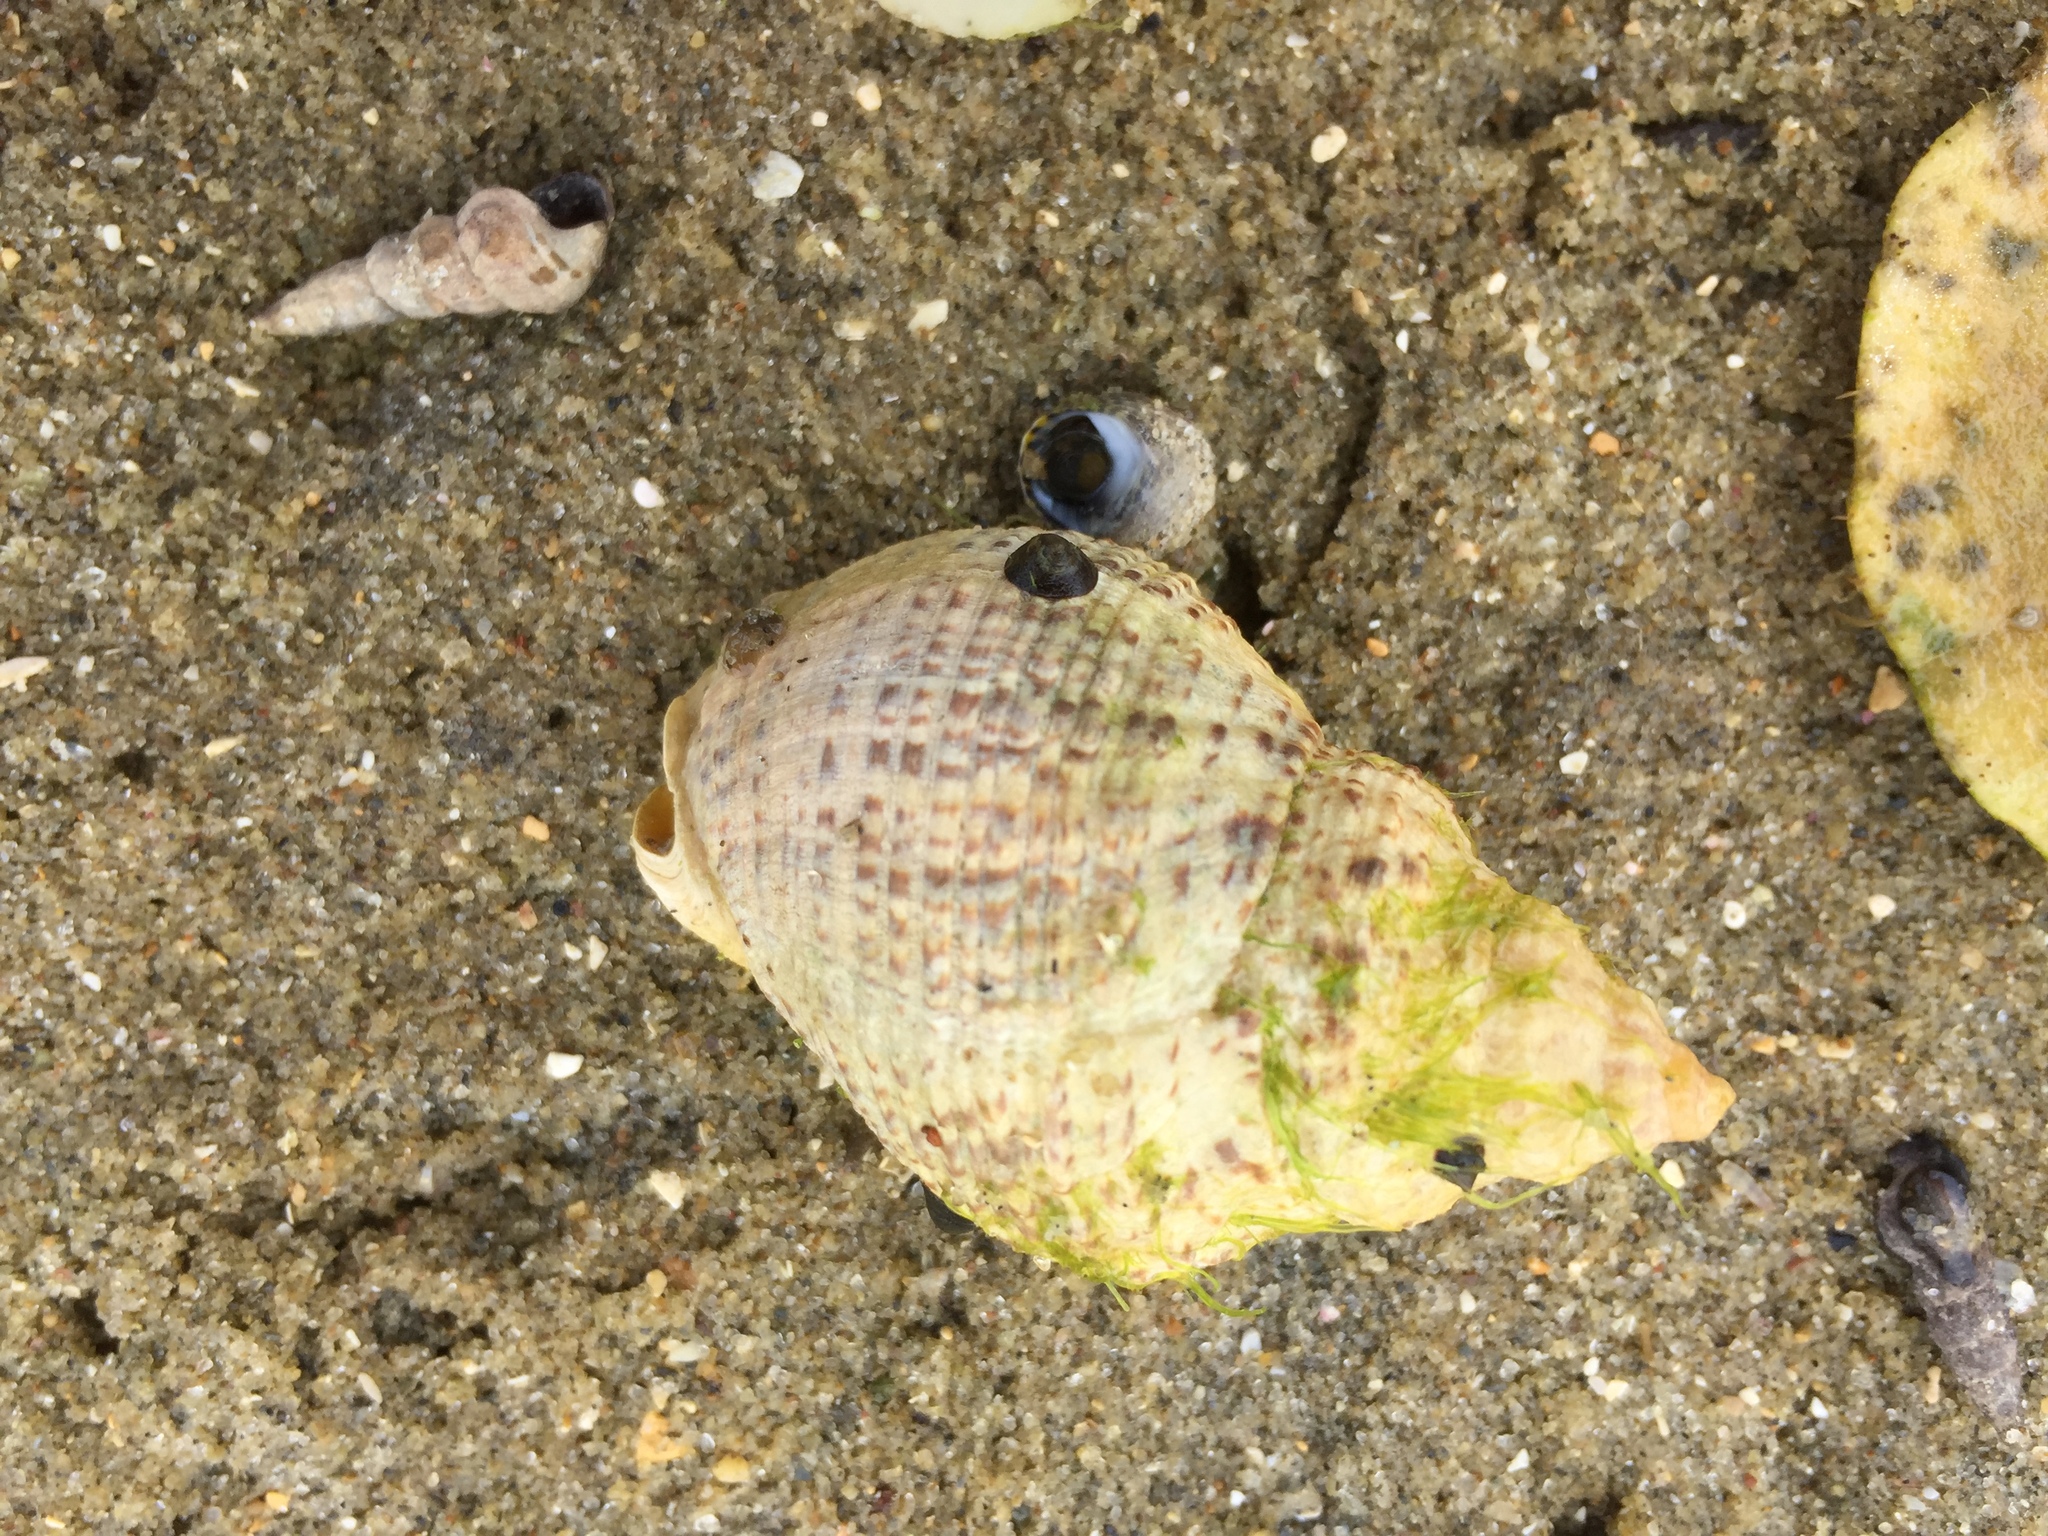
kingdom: Animalia
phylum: Mollusca
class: Gastropoda
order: Neogastropoda
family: Cominellidae
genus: Cominella
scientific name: Cominella adspersa
